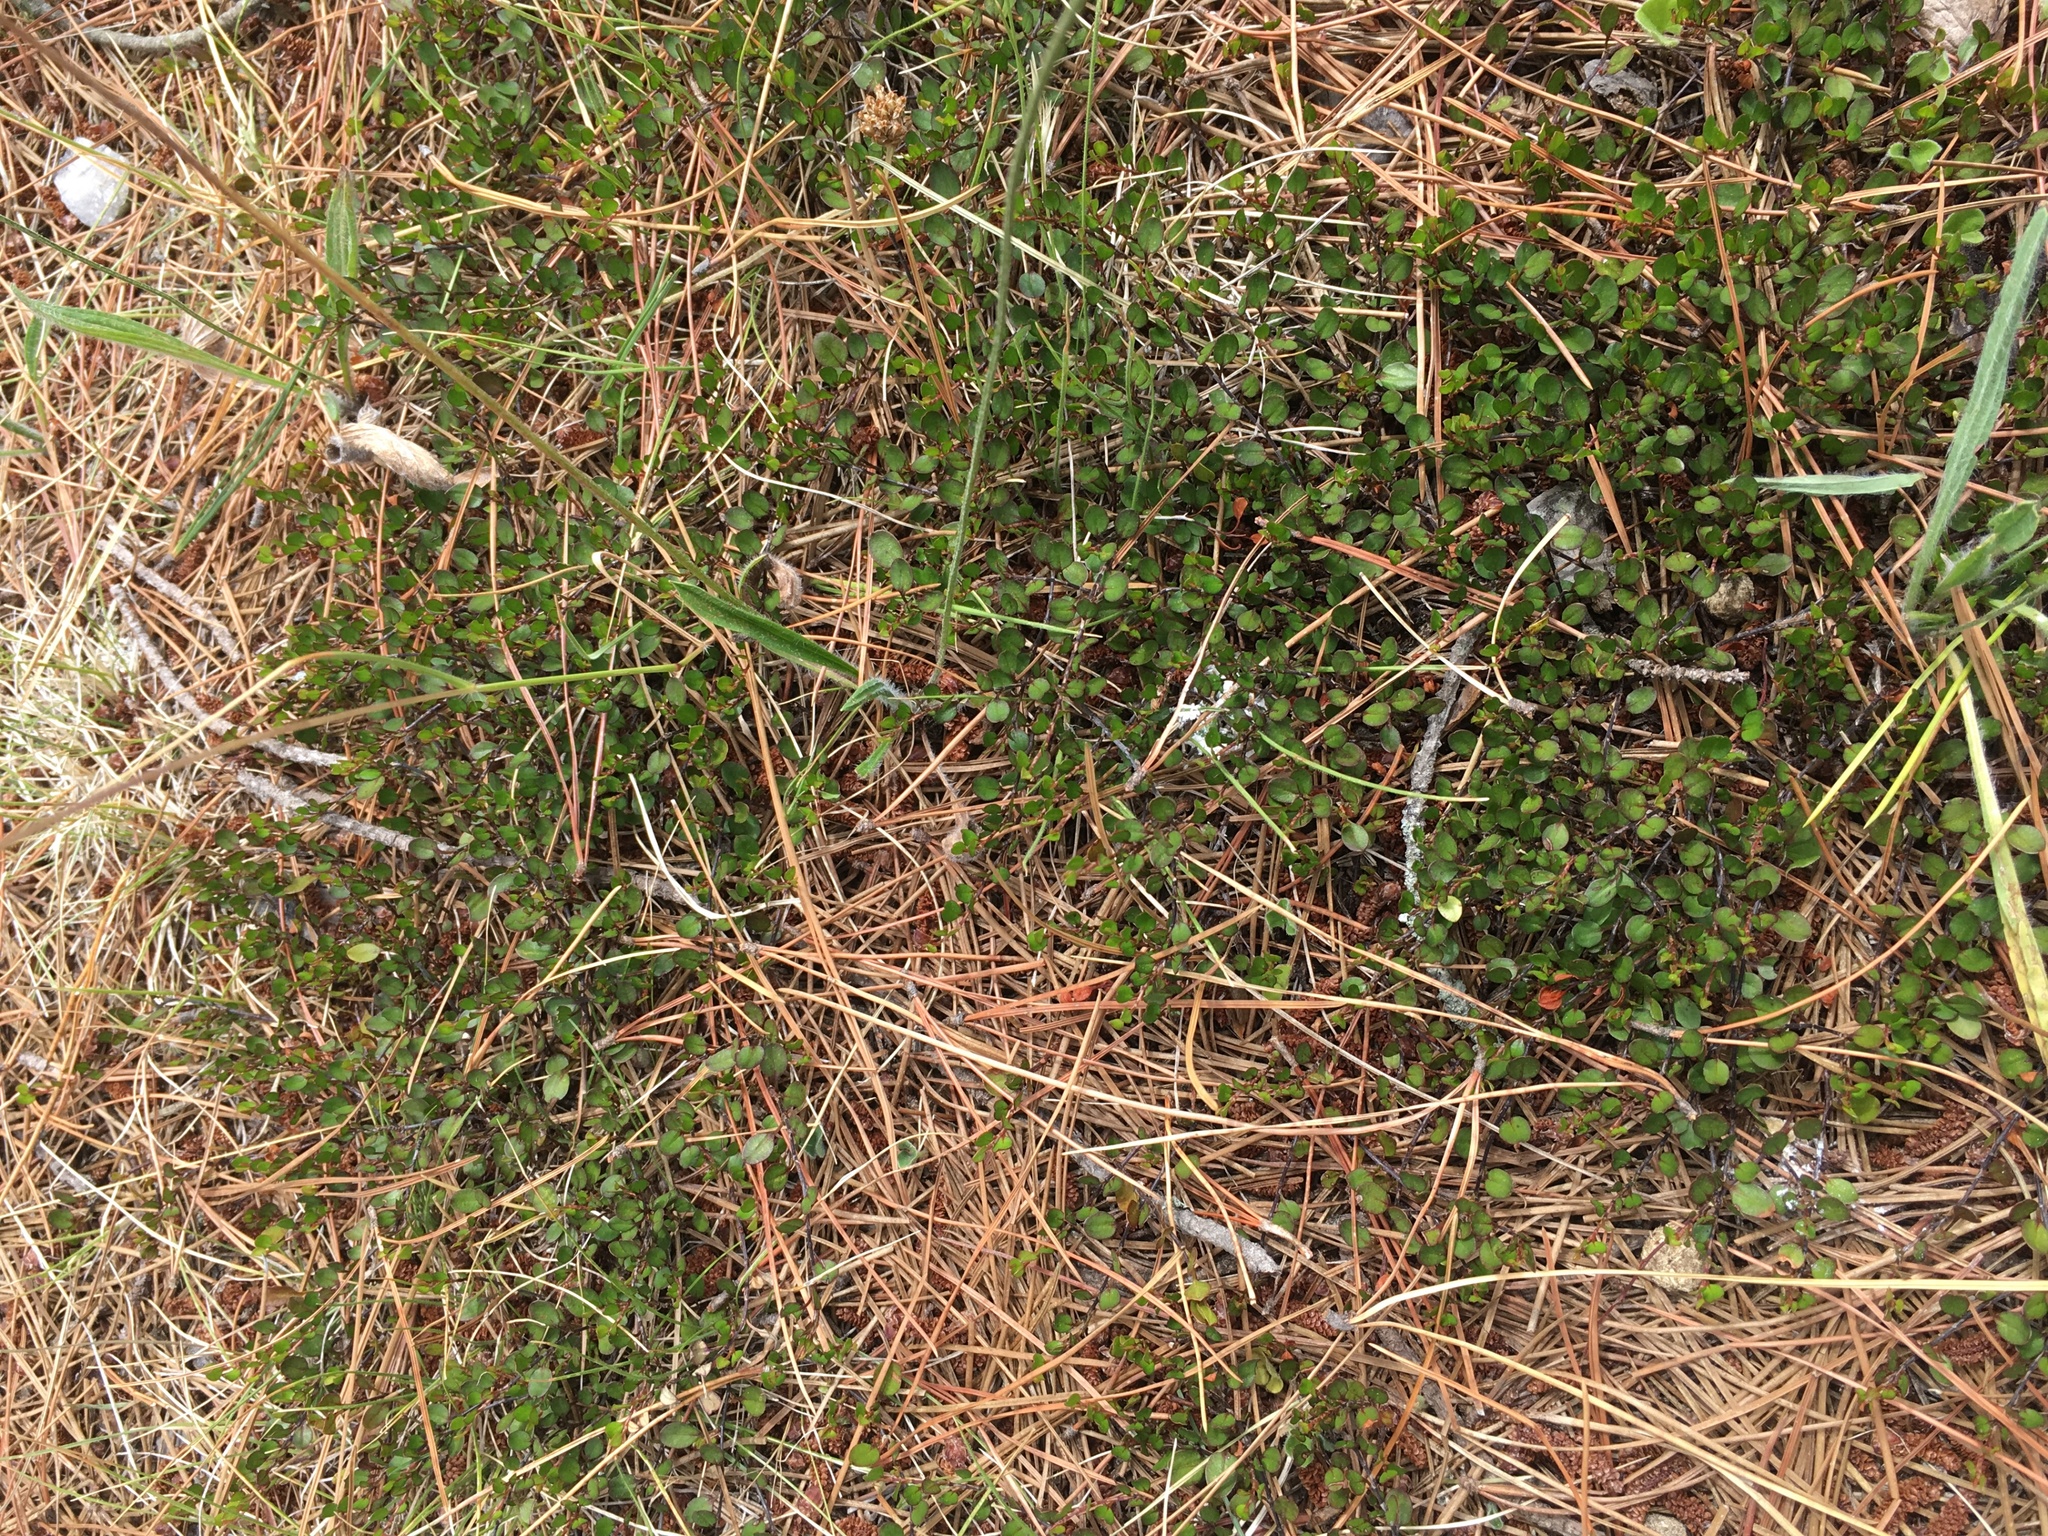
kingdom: Plantae
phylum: Tracheophyta
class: Magnoliopsida
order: Caryophyllales
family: Polygonaceae
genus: Muehlenbeckia
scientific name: Muehlenbeckia axillaris
